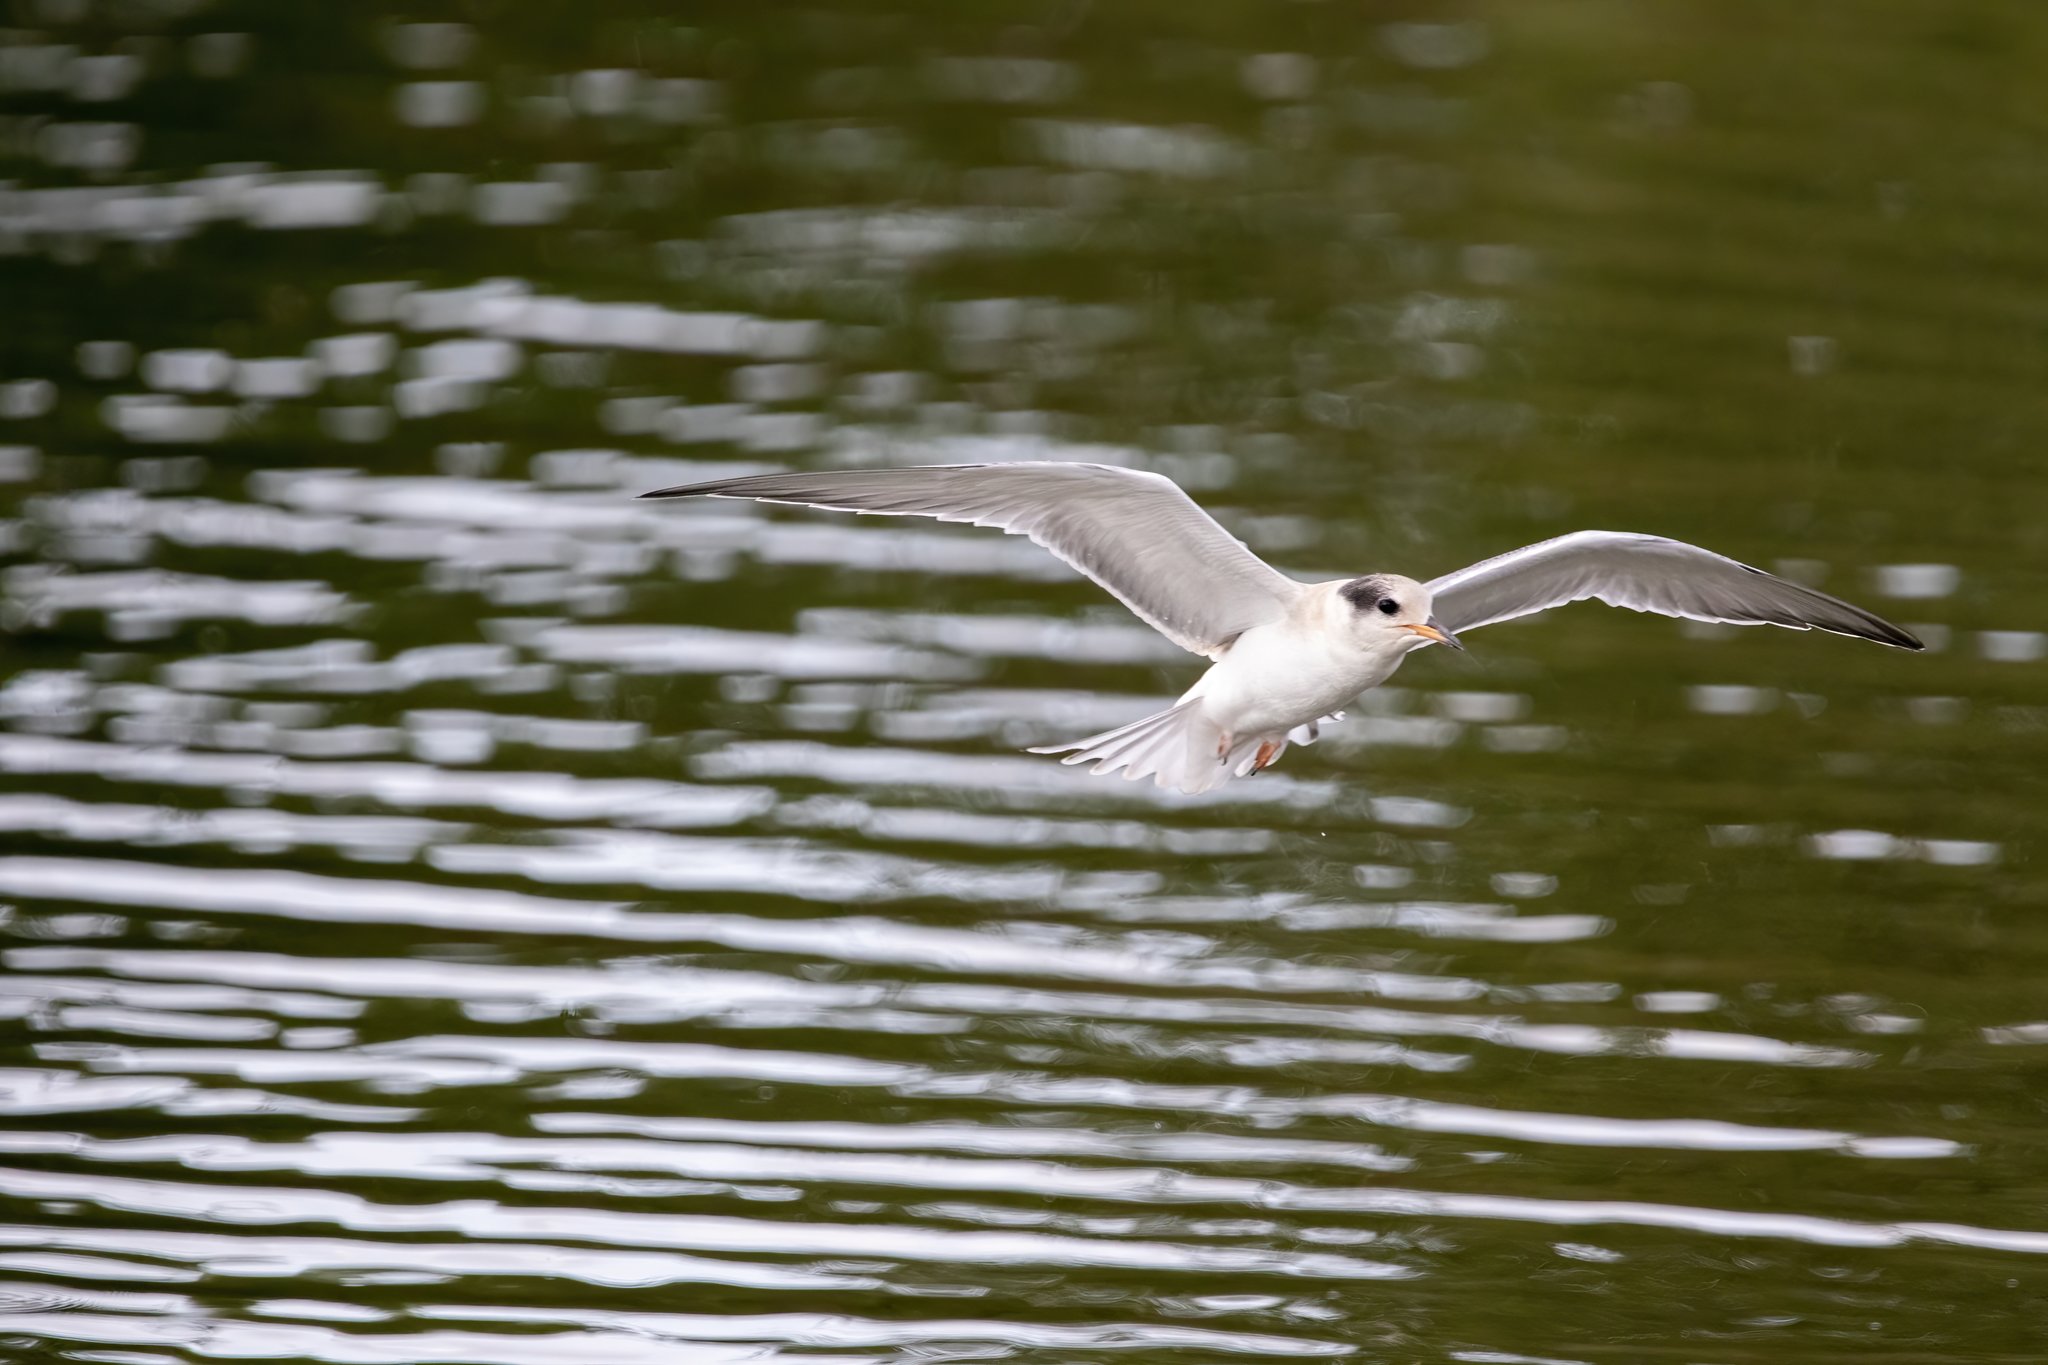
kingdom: Animalia
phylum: Chordata
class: Aves
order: Charadriiformes
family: Laridae
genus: Sterna
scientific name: Sterna hirundo
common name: Common tern
